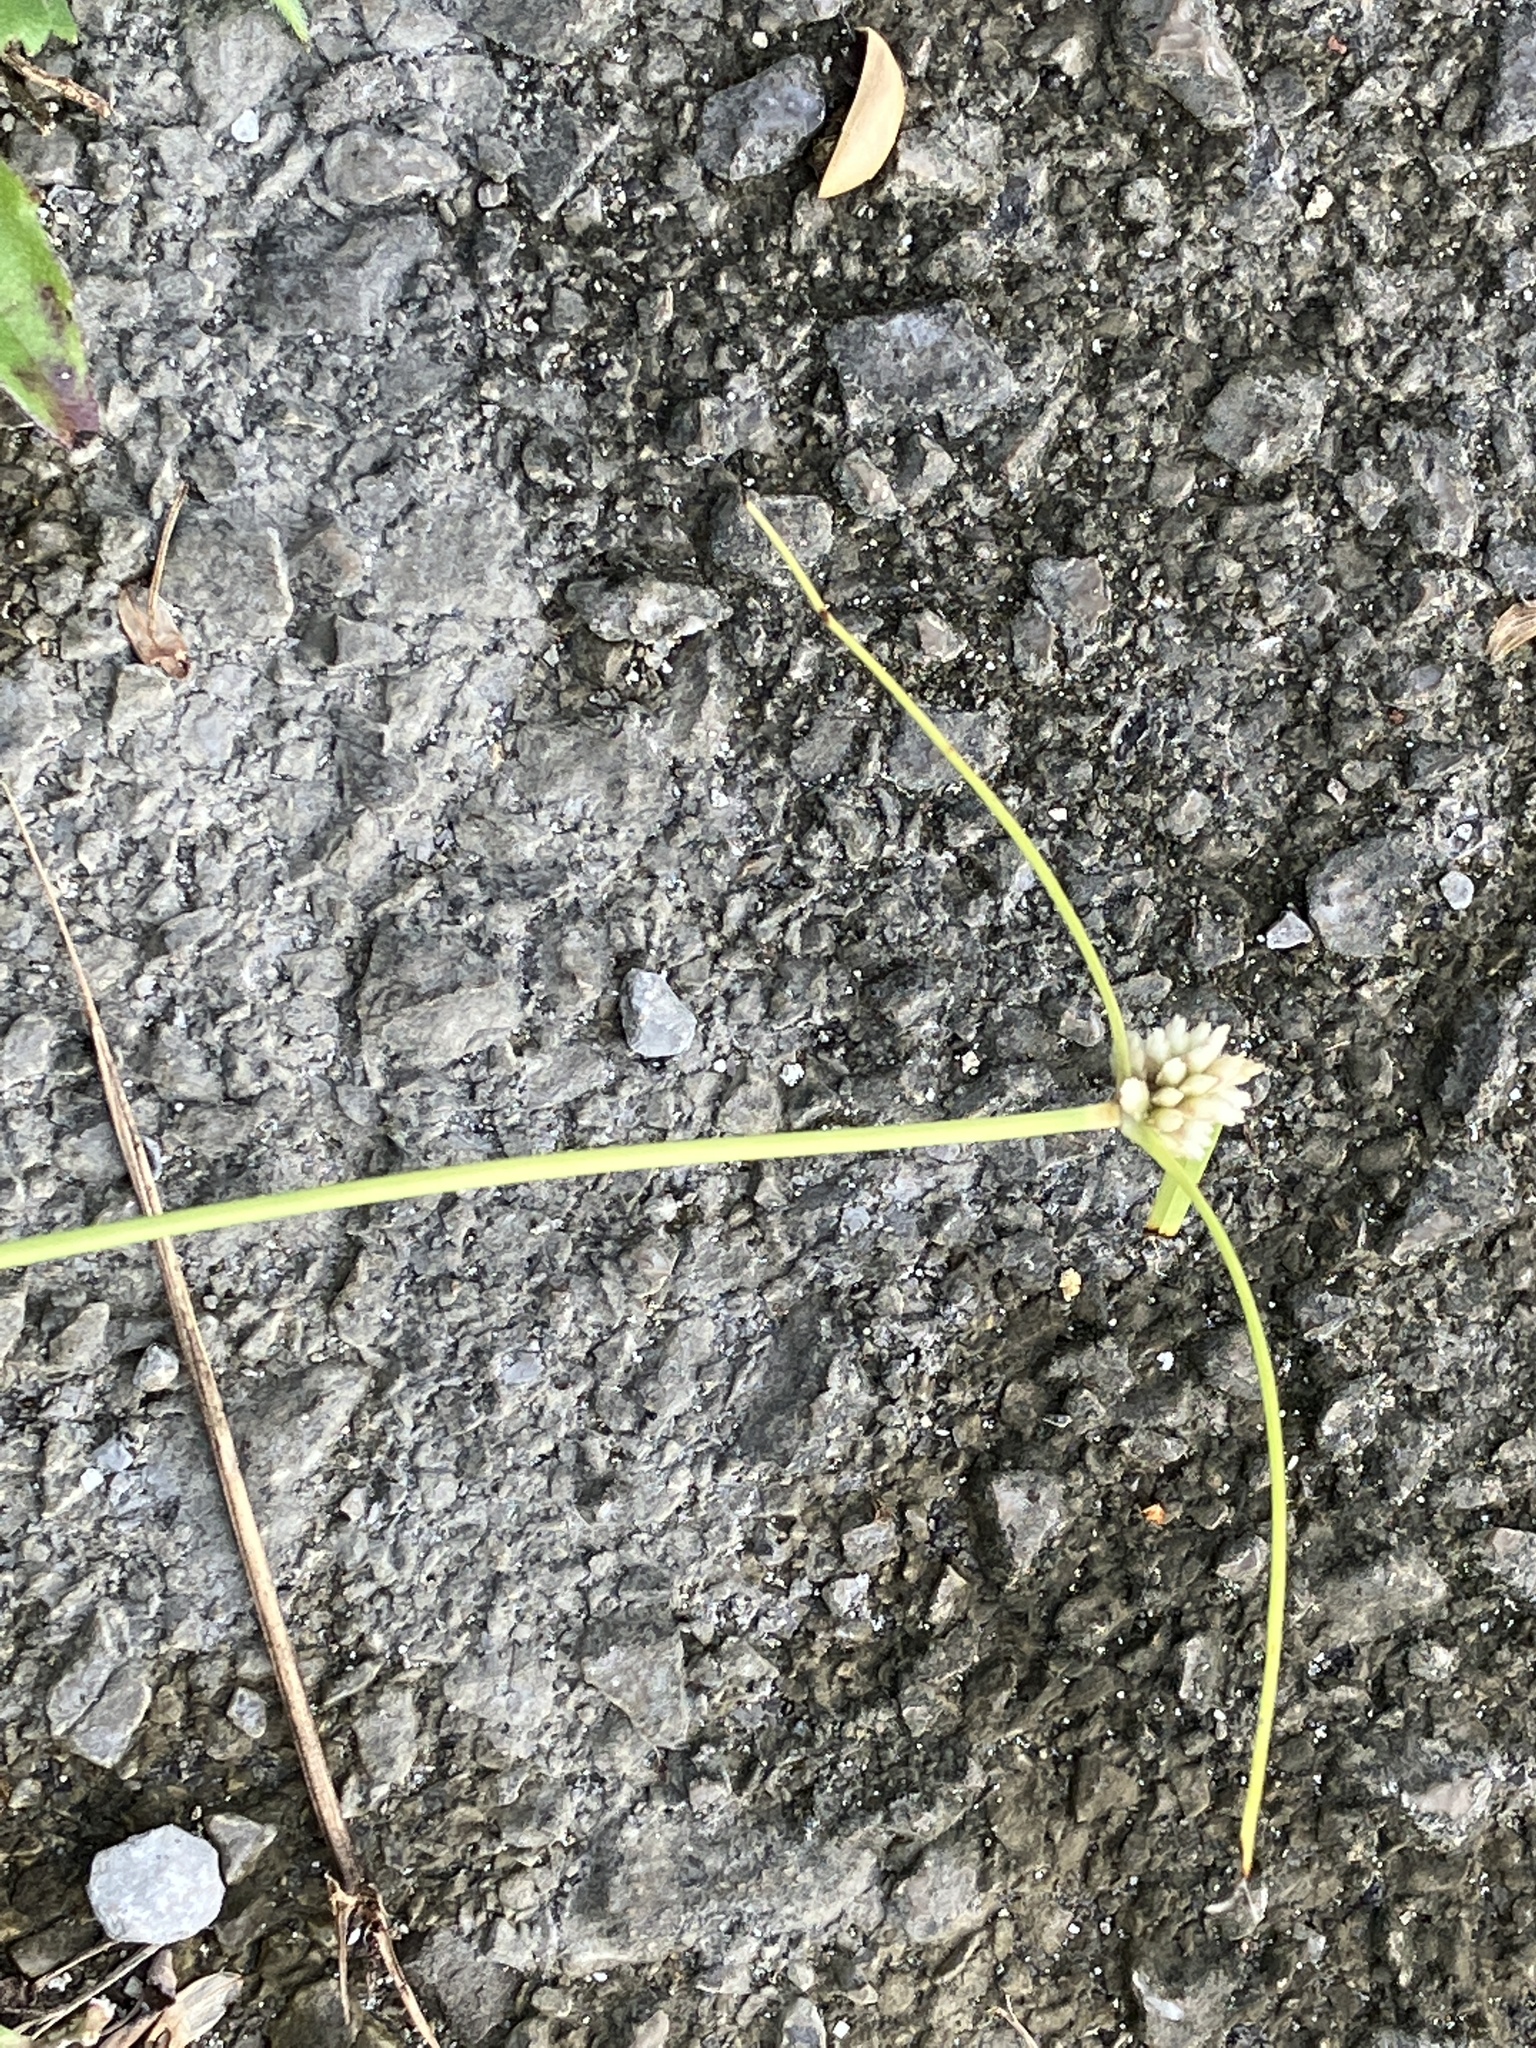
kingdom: Plantae
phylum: Tracheophyta
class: Liliopsida
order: Poales
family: Cyperaceae
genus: Cyperus
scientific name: Cyperus mindorensis
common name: Flatsedge
